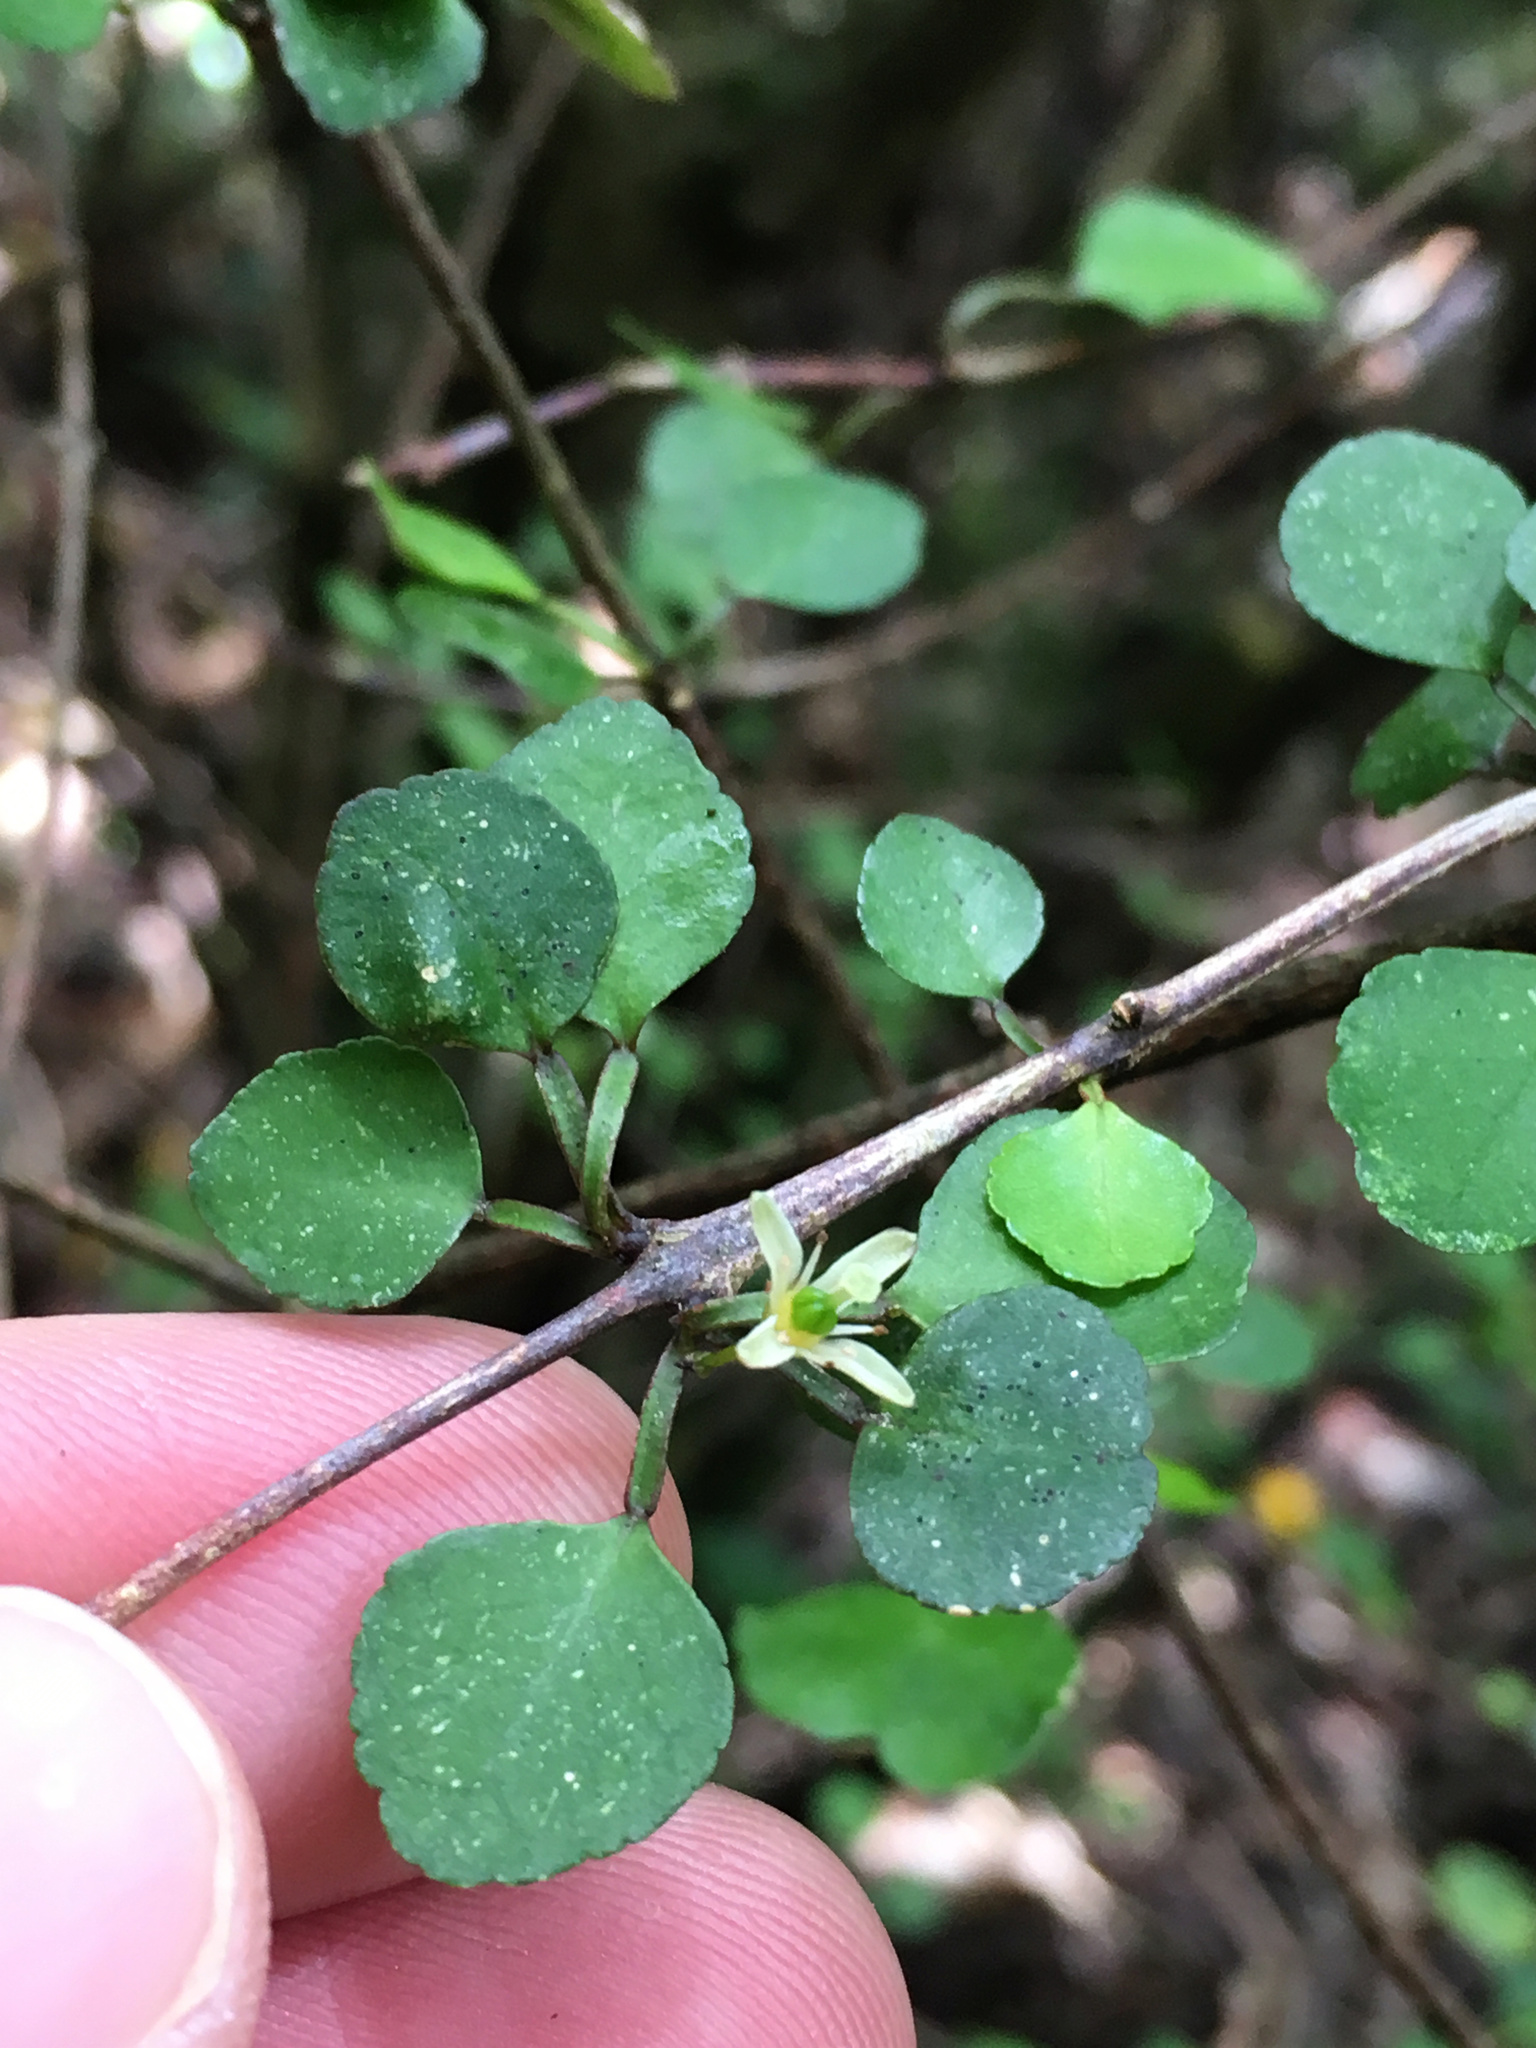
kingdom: Plantae
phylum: Tracheophyta
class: Magnoliopsida
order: Sapindales
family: Rutaceae
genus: Melicope
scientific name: Melicope simplex
